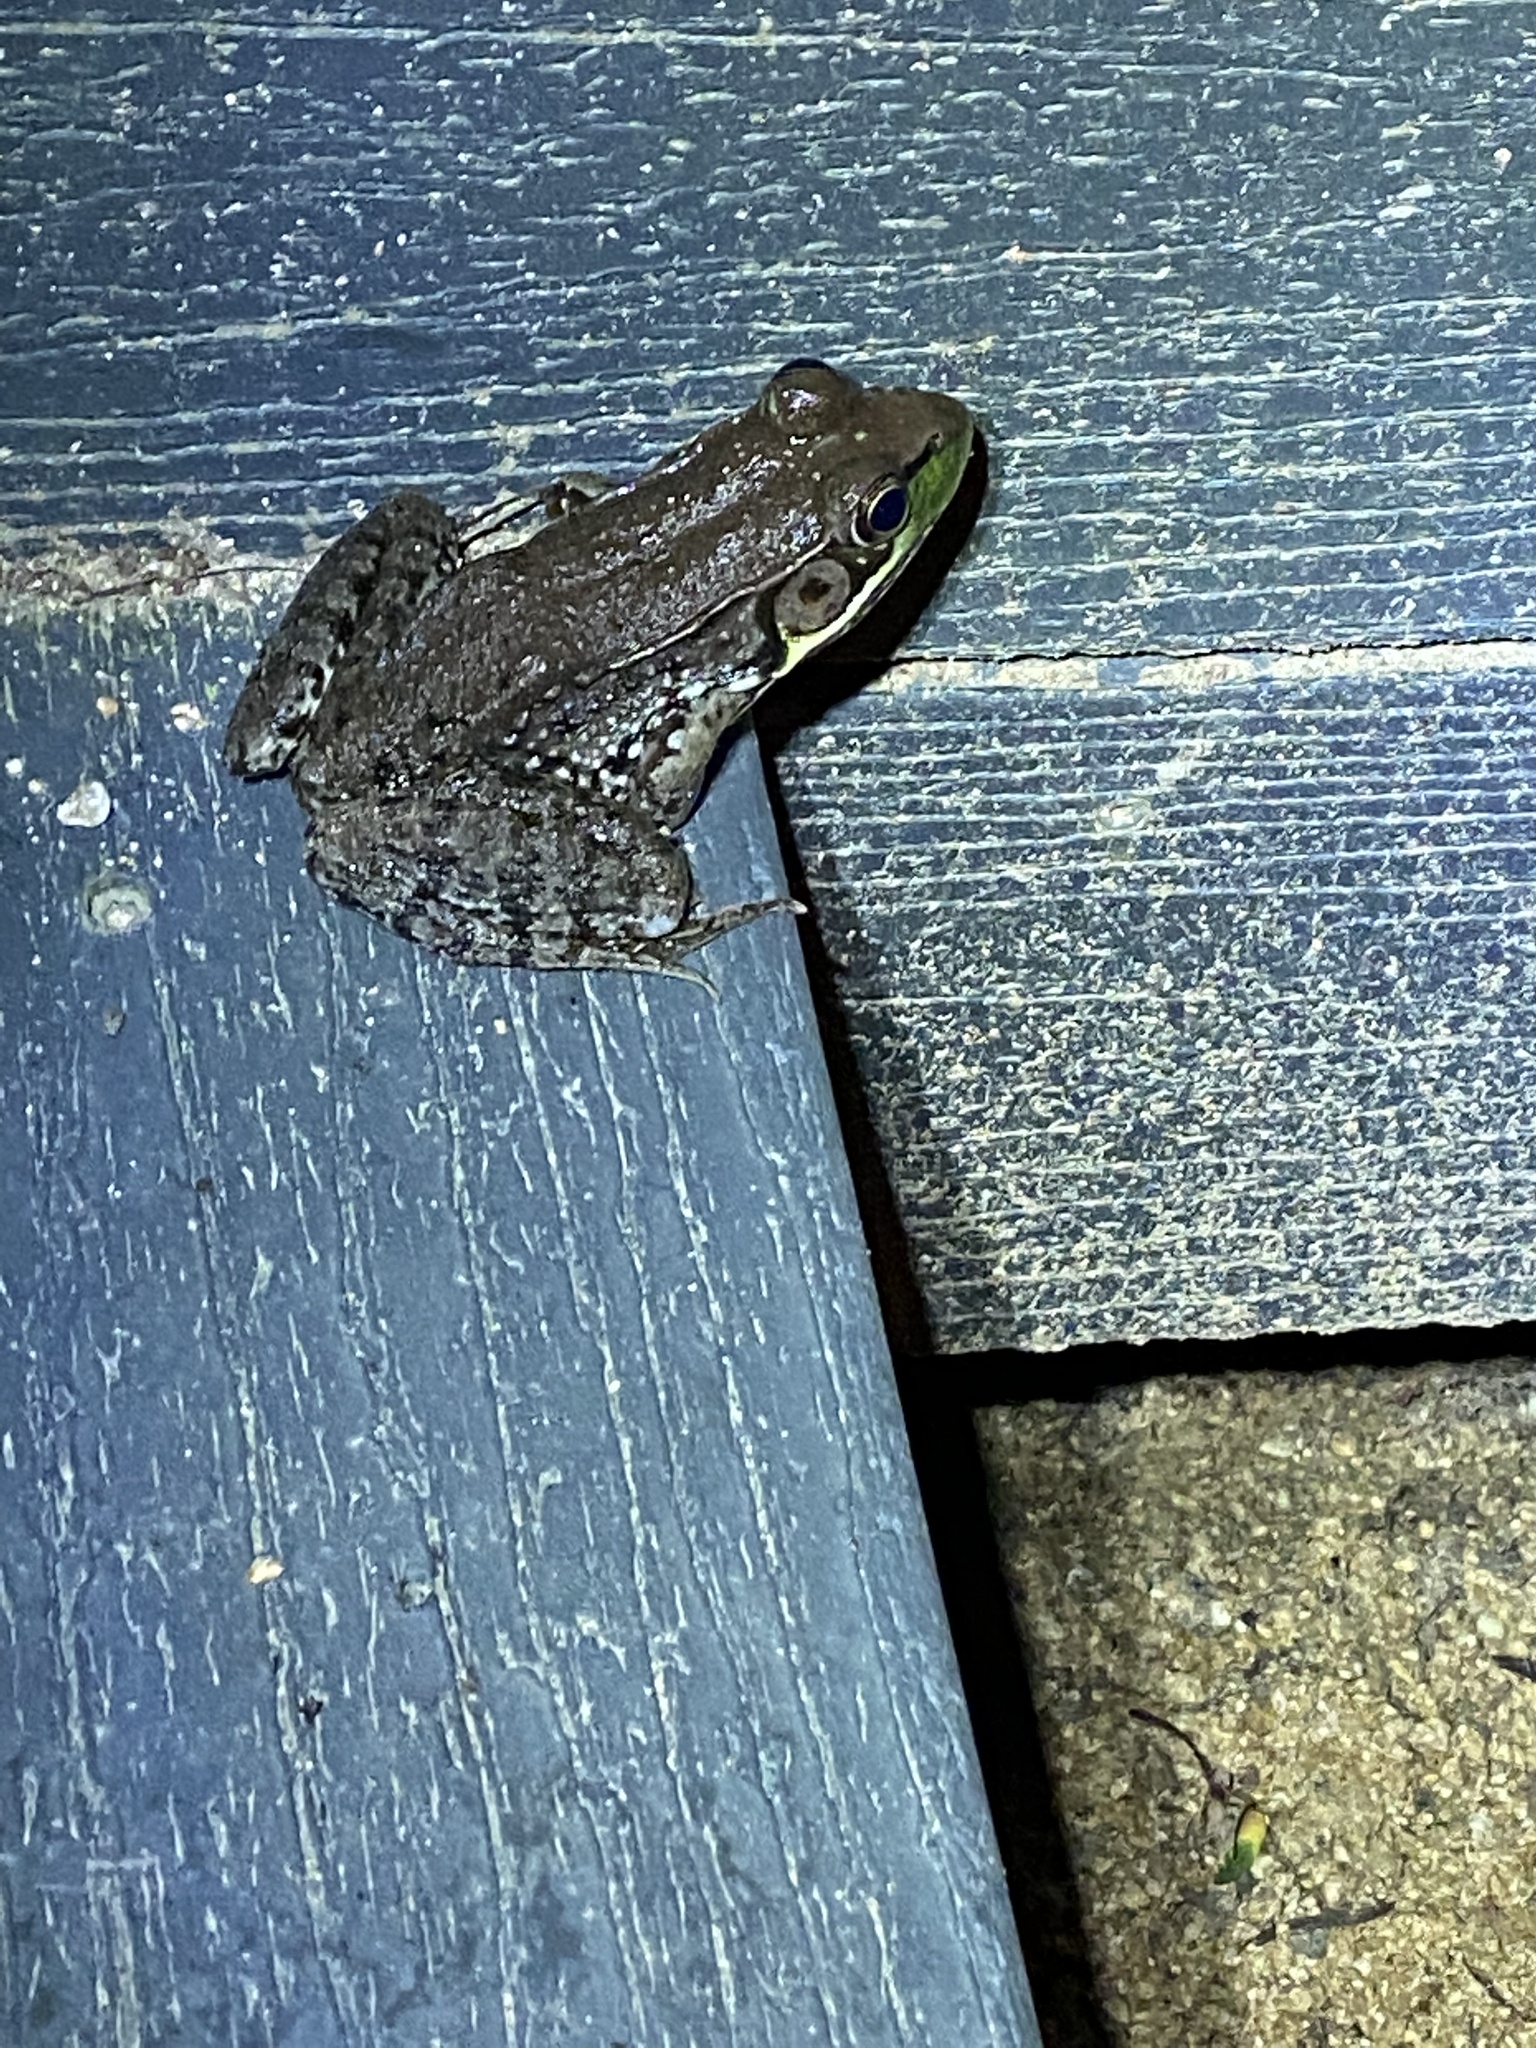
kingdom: Animalia
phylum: Chordata
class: Amphibia
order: Anura
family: Ranidae
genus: Lithobates
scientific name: Lithobates clamitans
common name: Green frog
